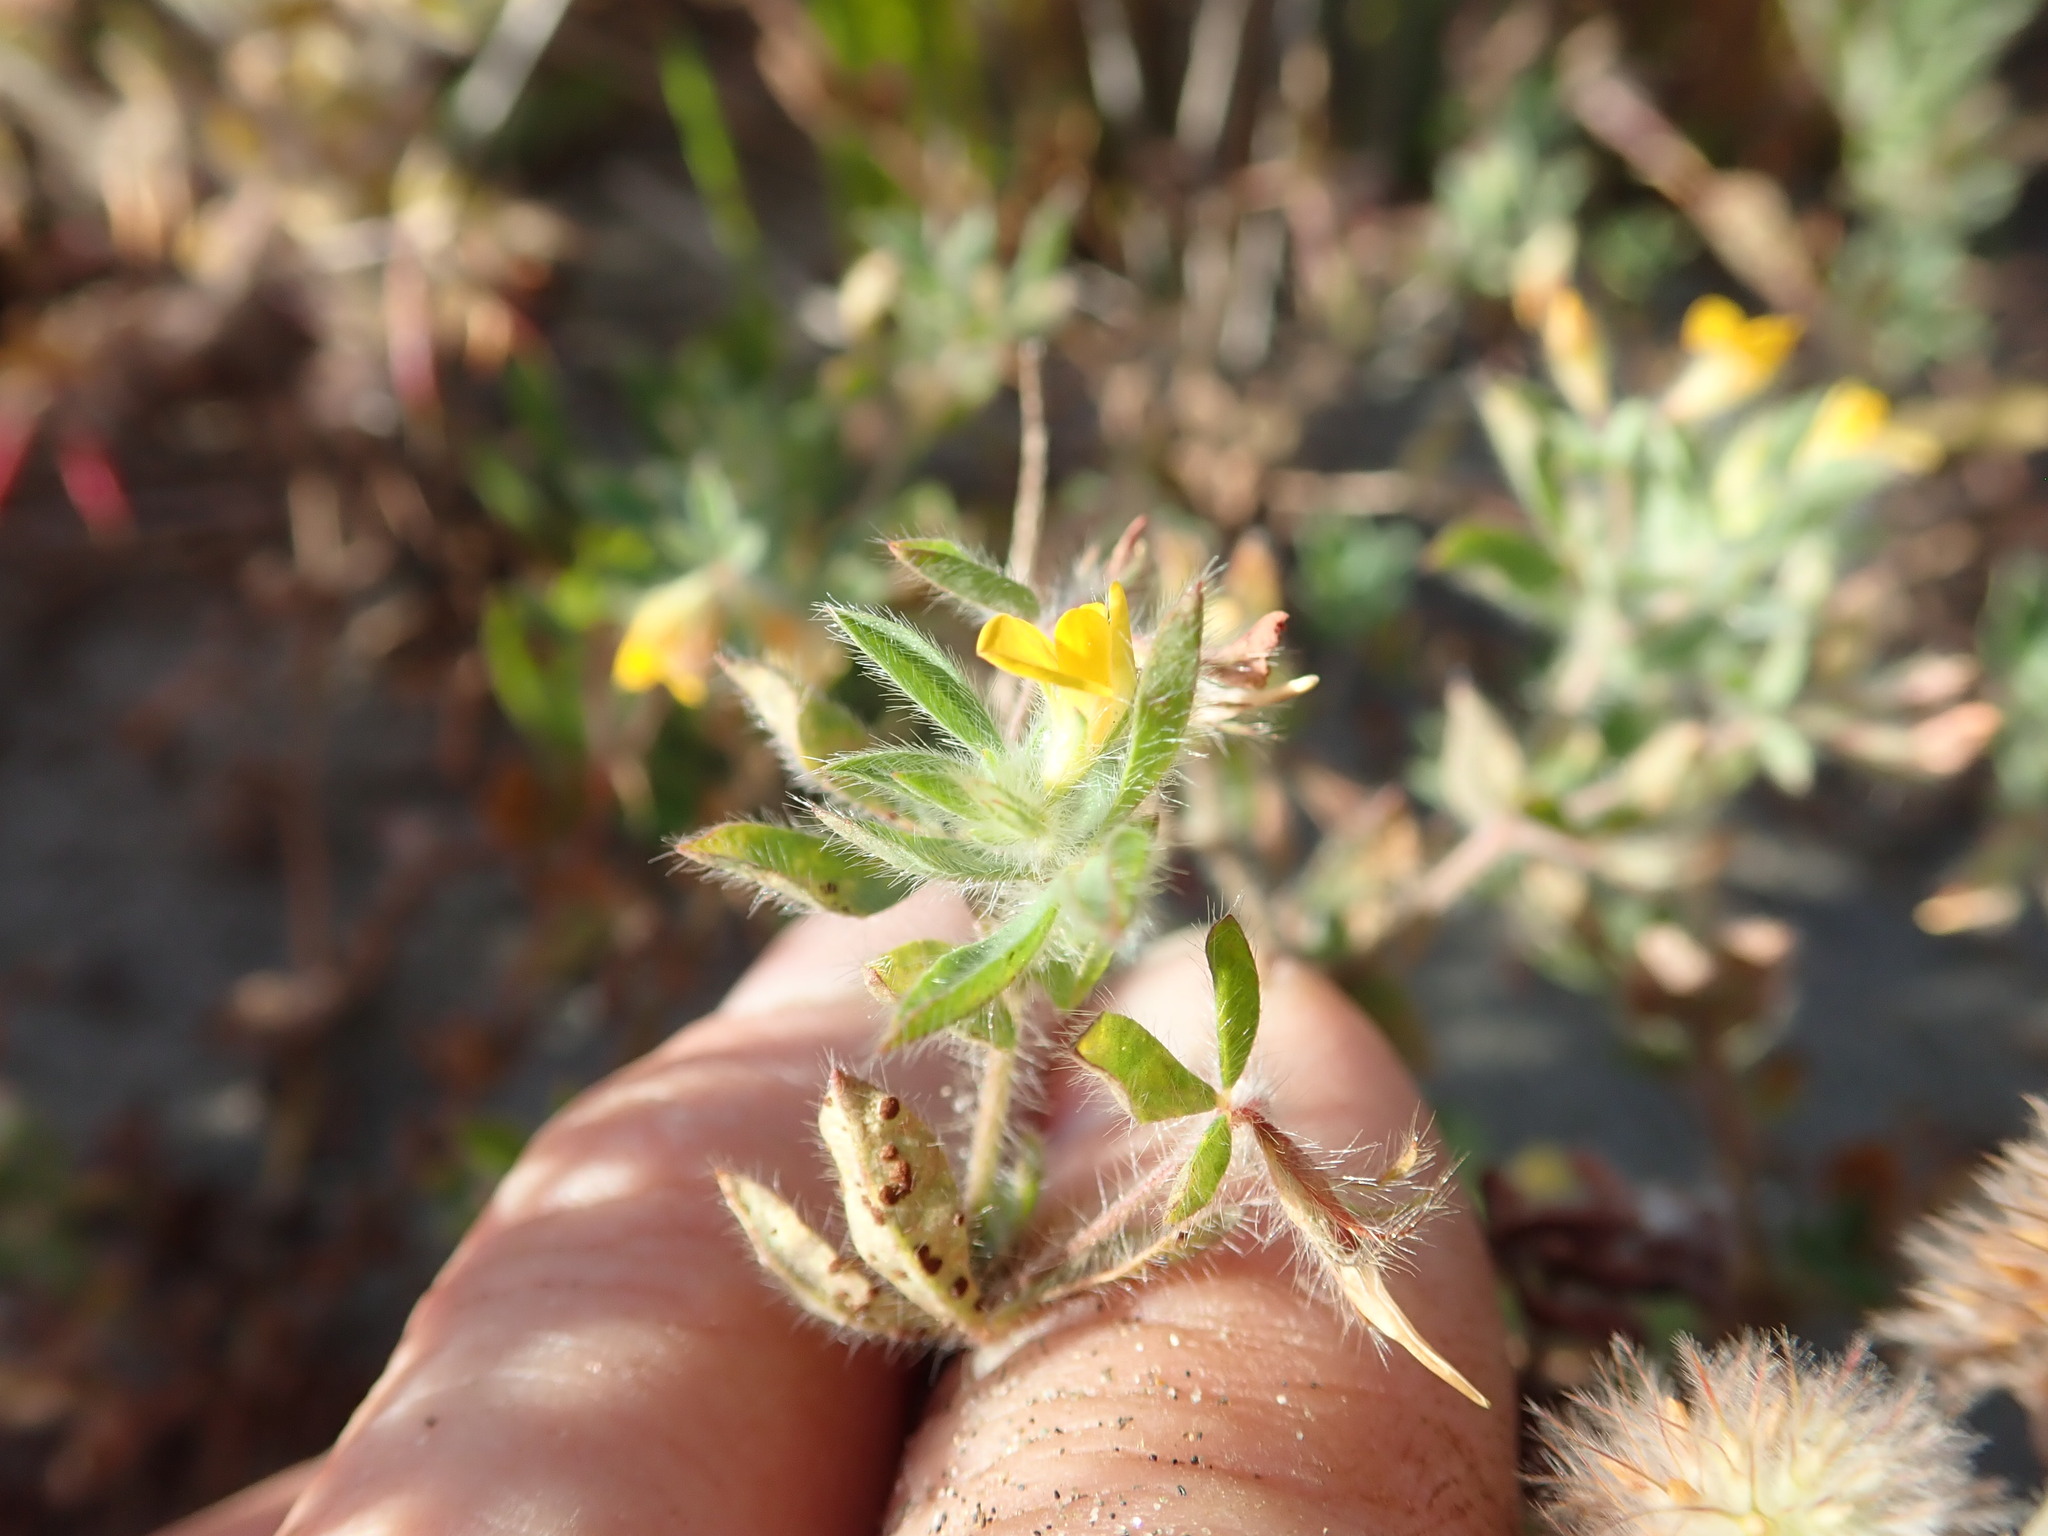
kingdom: Plantae
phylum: Tracheophyta
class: Magnoliopsida
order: Fabales
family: Fabaceae
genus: Lotus
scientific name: Lotus subbiflorus
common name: Hairy bird's-foot trefoil
